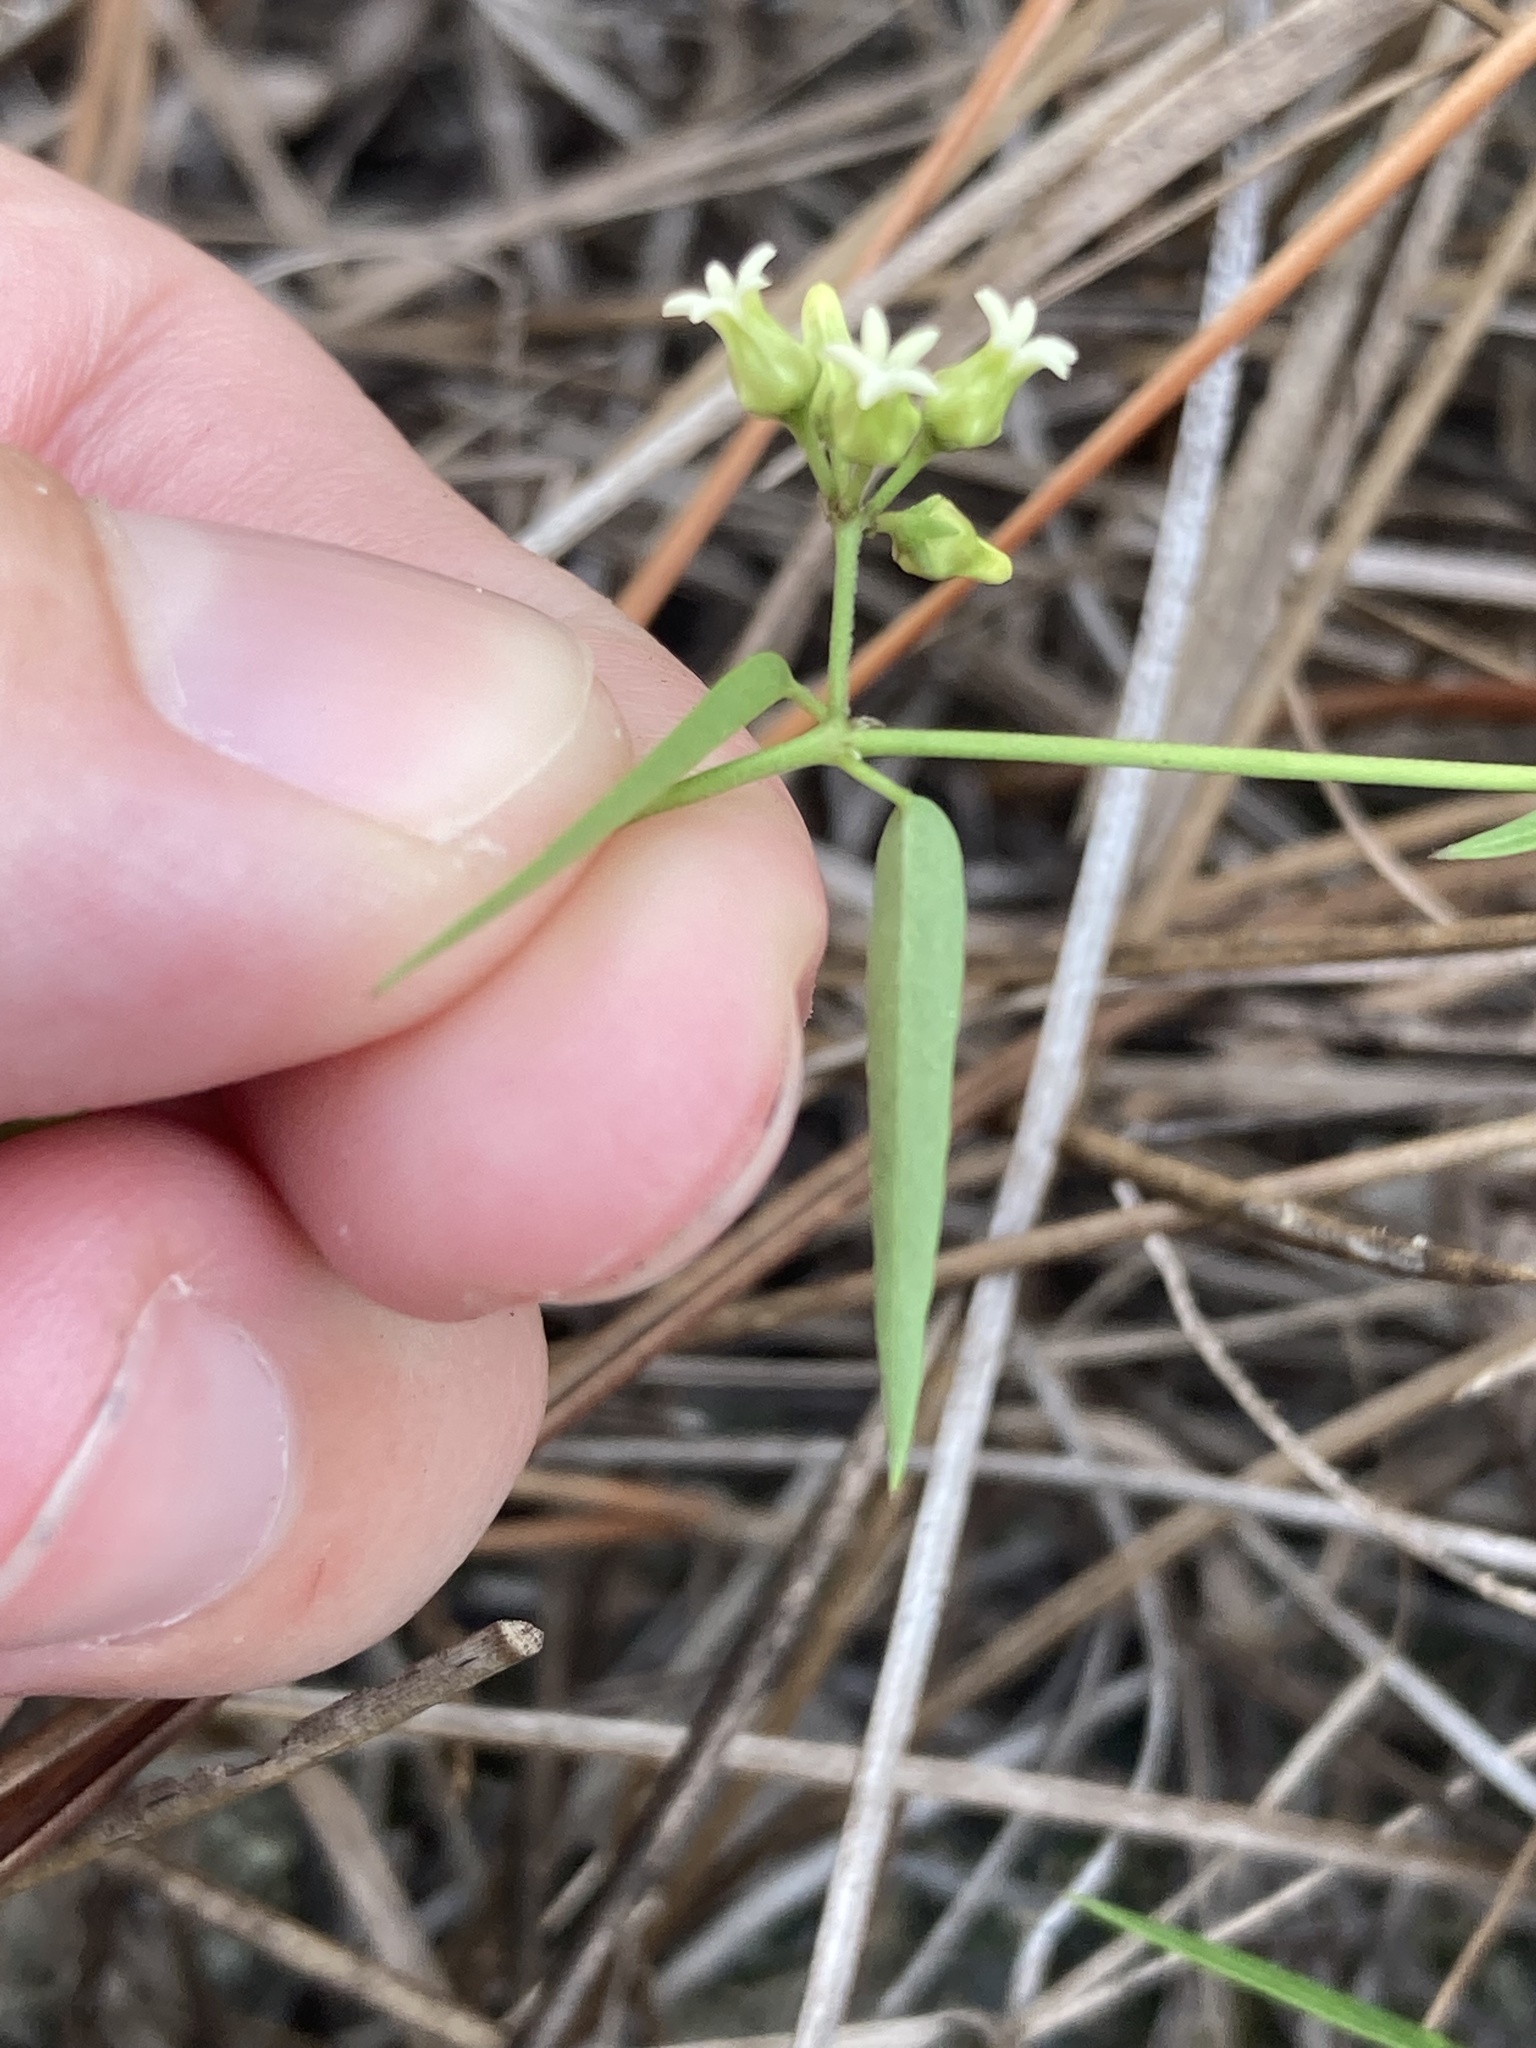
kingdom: Plantae
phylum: Tracheophyta
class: Magnoliopsida
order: Gentianales
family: Apocynaceae
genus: Metastelma
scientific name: Metastelma blodgettii
